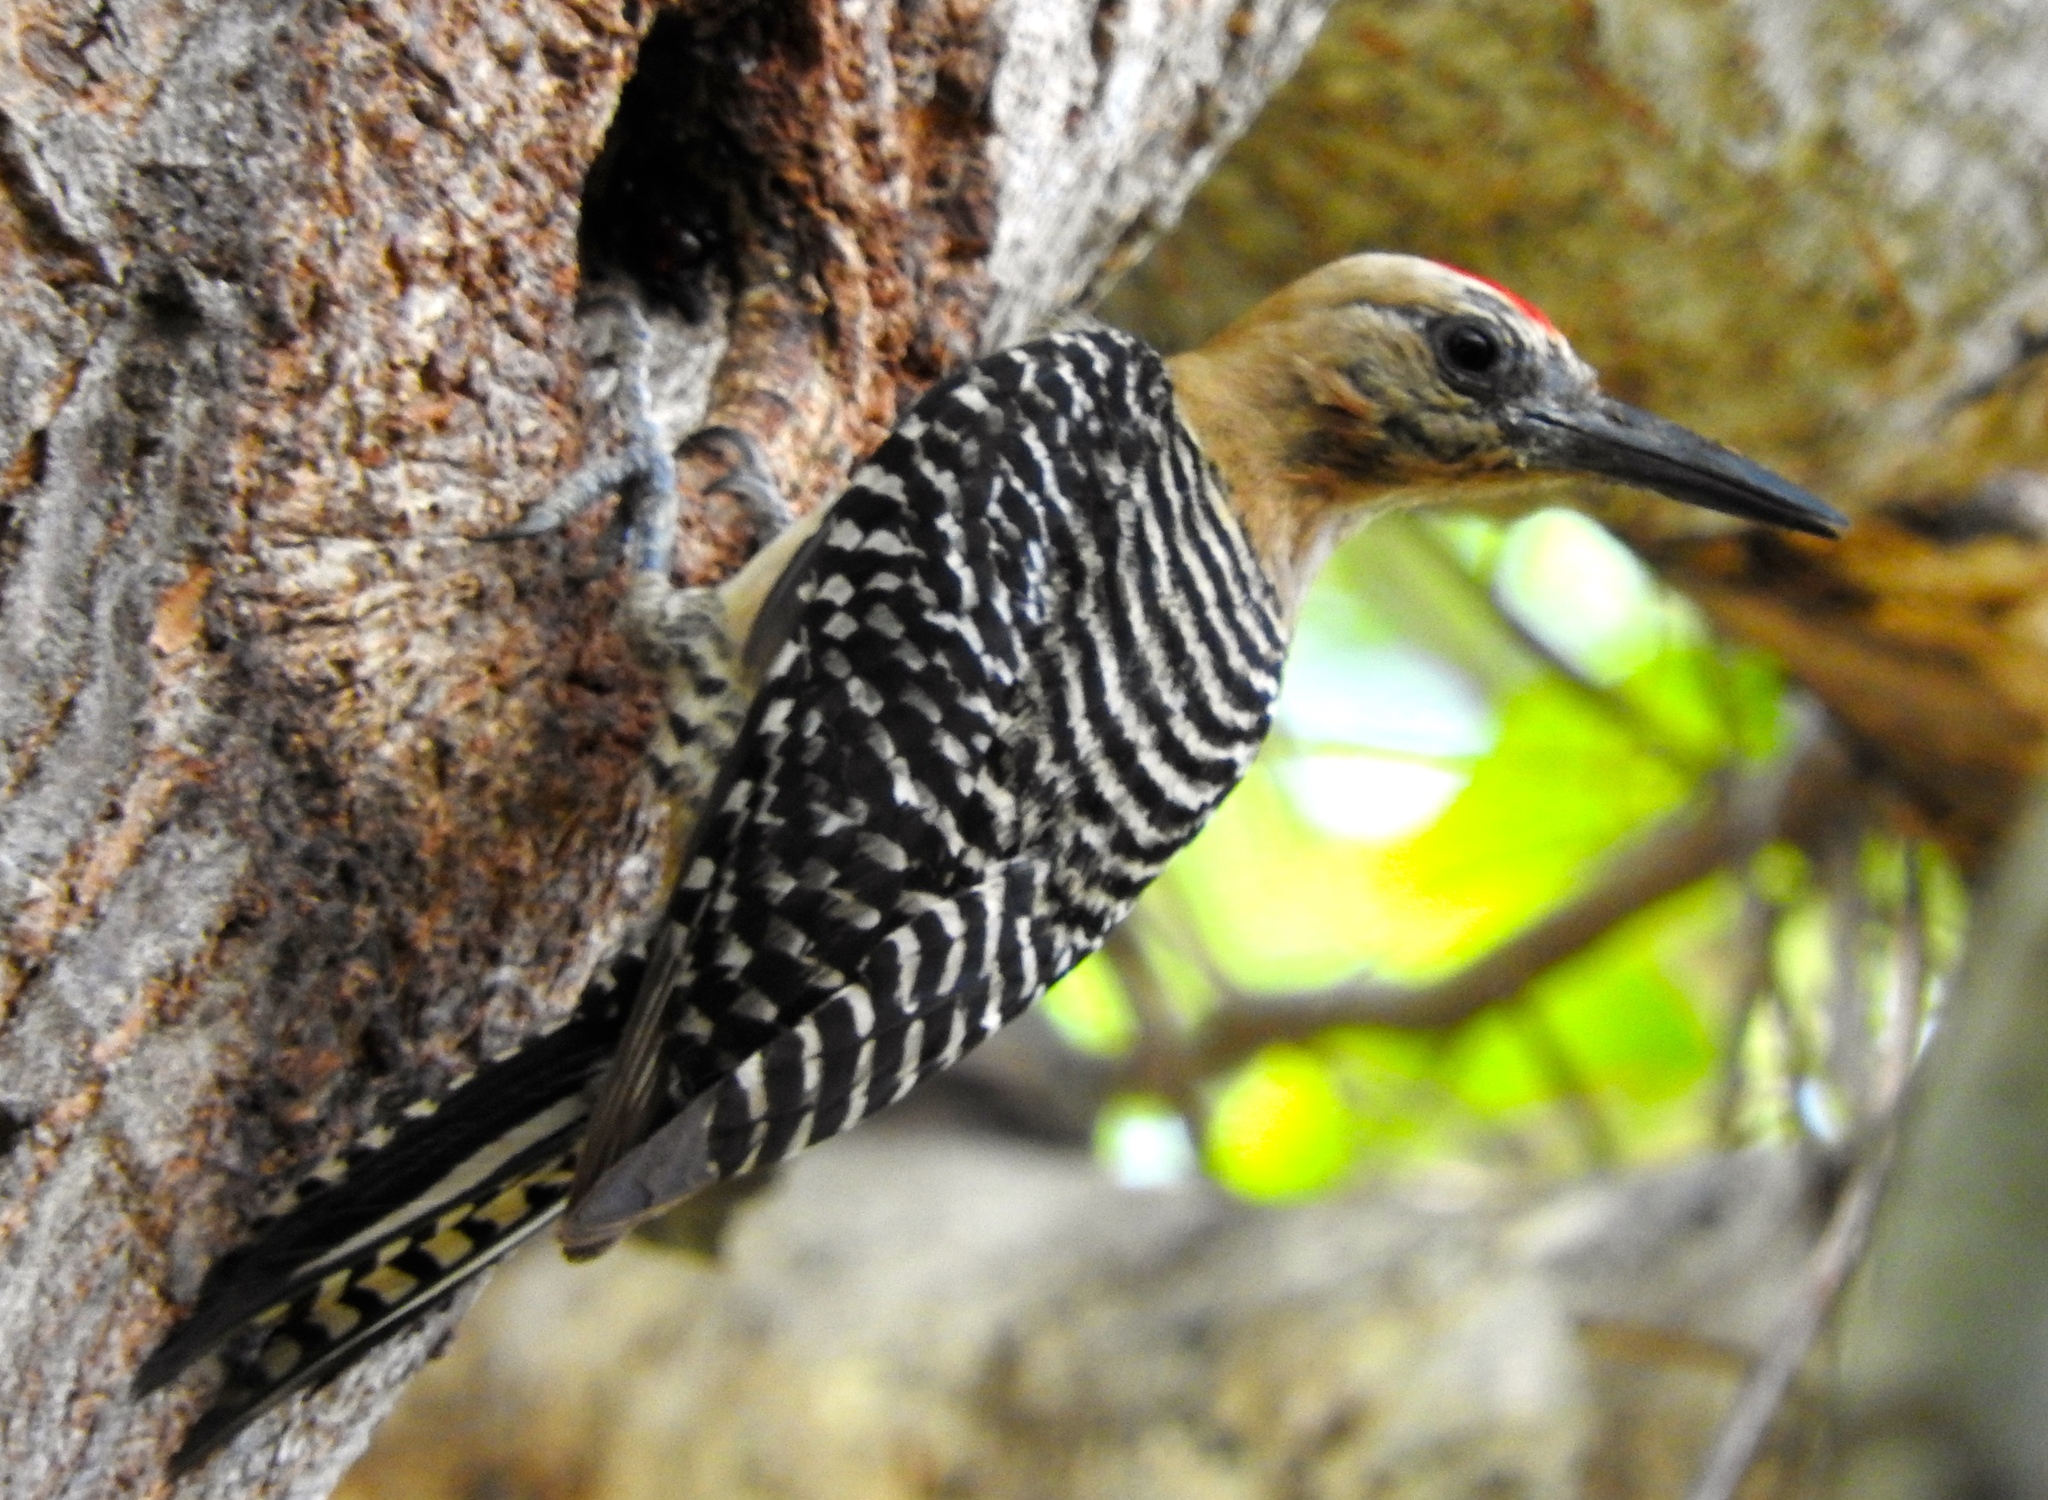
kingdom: Animalia
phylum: Chordata
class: Aves
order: Piciformes
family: Picidae
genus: Melanerpes
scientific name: Melanerpes uropygialis
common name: Gila woodpecker
